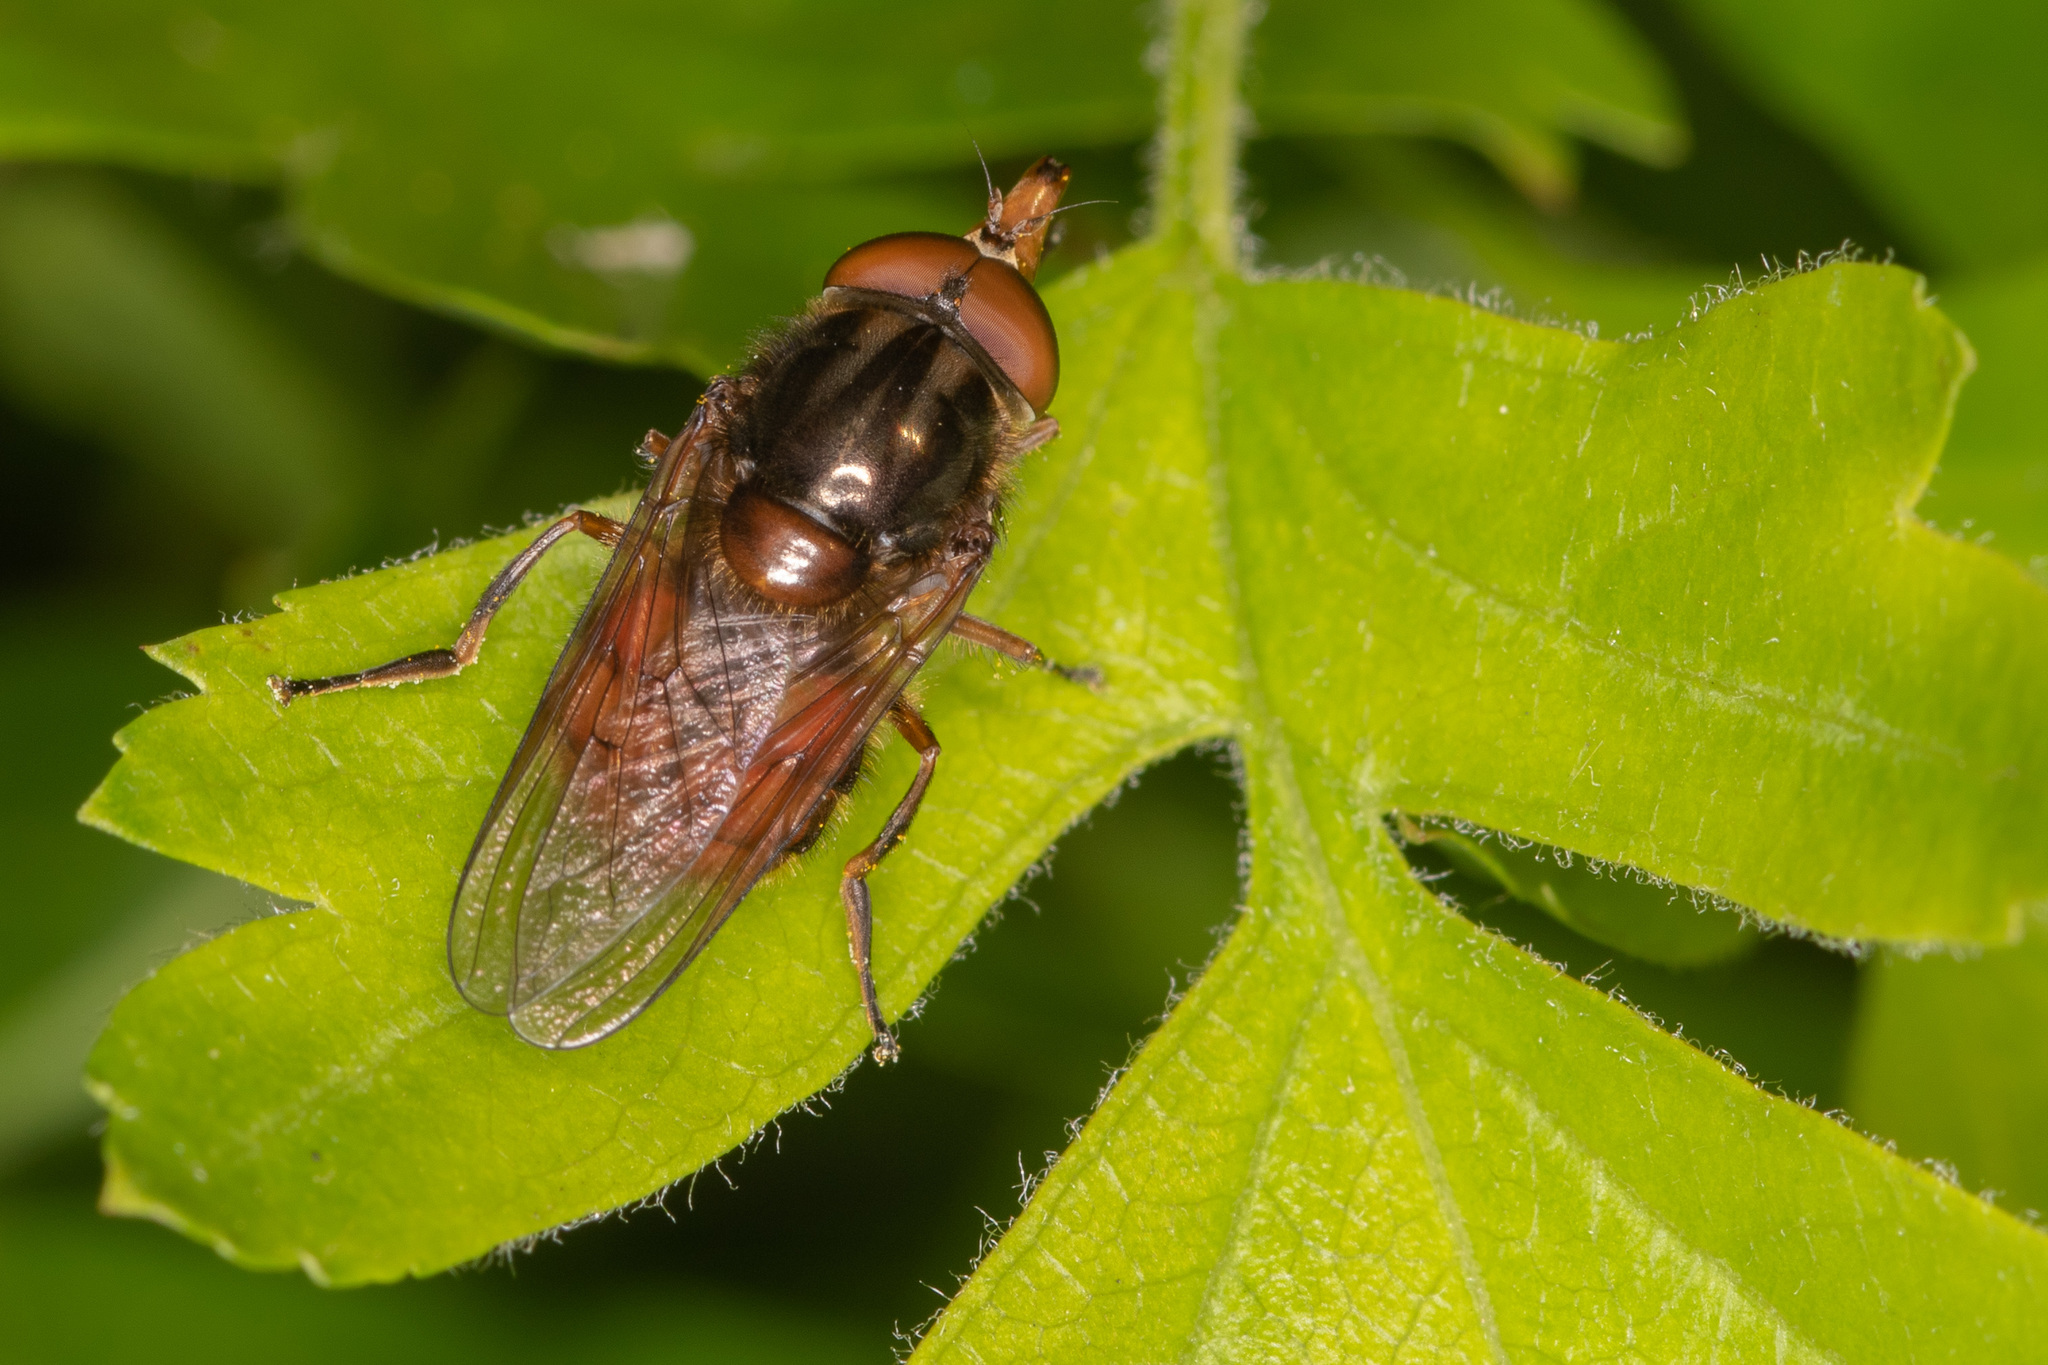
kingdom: Animalia
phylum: Arthropoda
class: Insecta
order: Diptera
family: Syrphidae
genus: Rhingia
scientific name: Rhingia campestris
